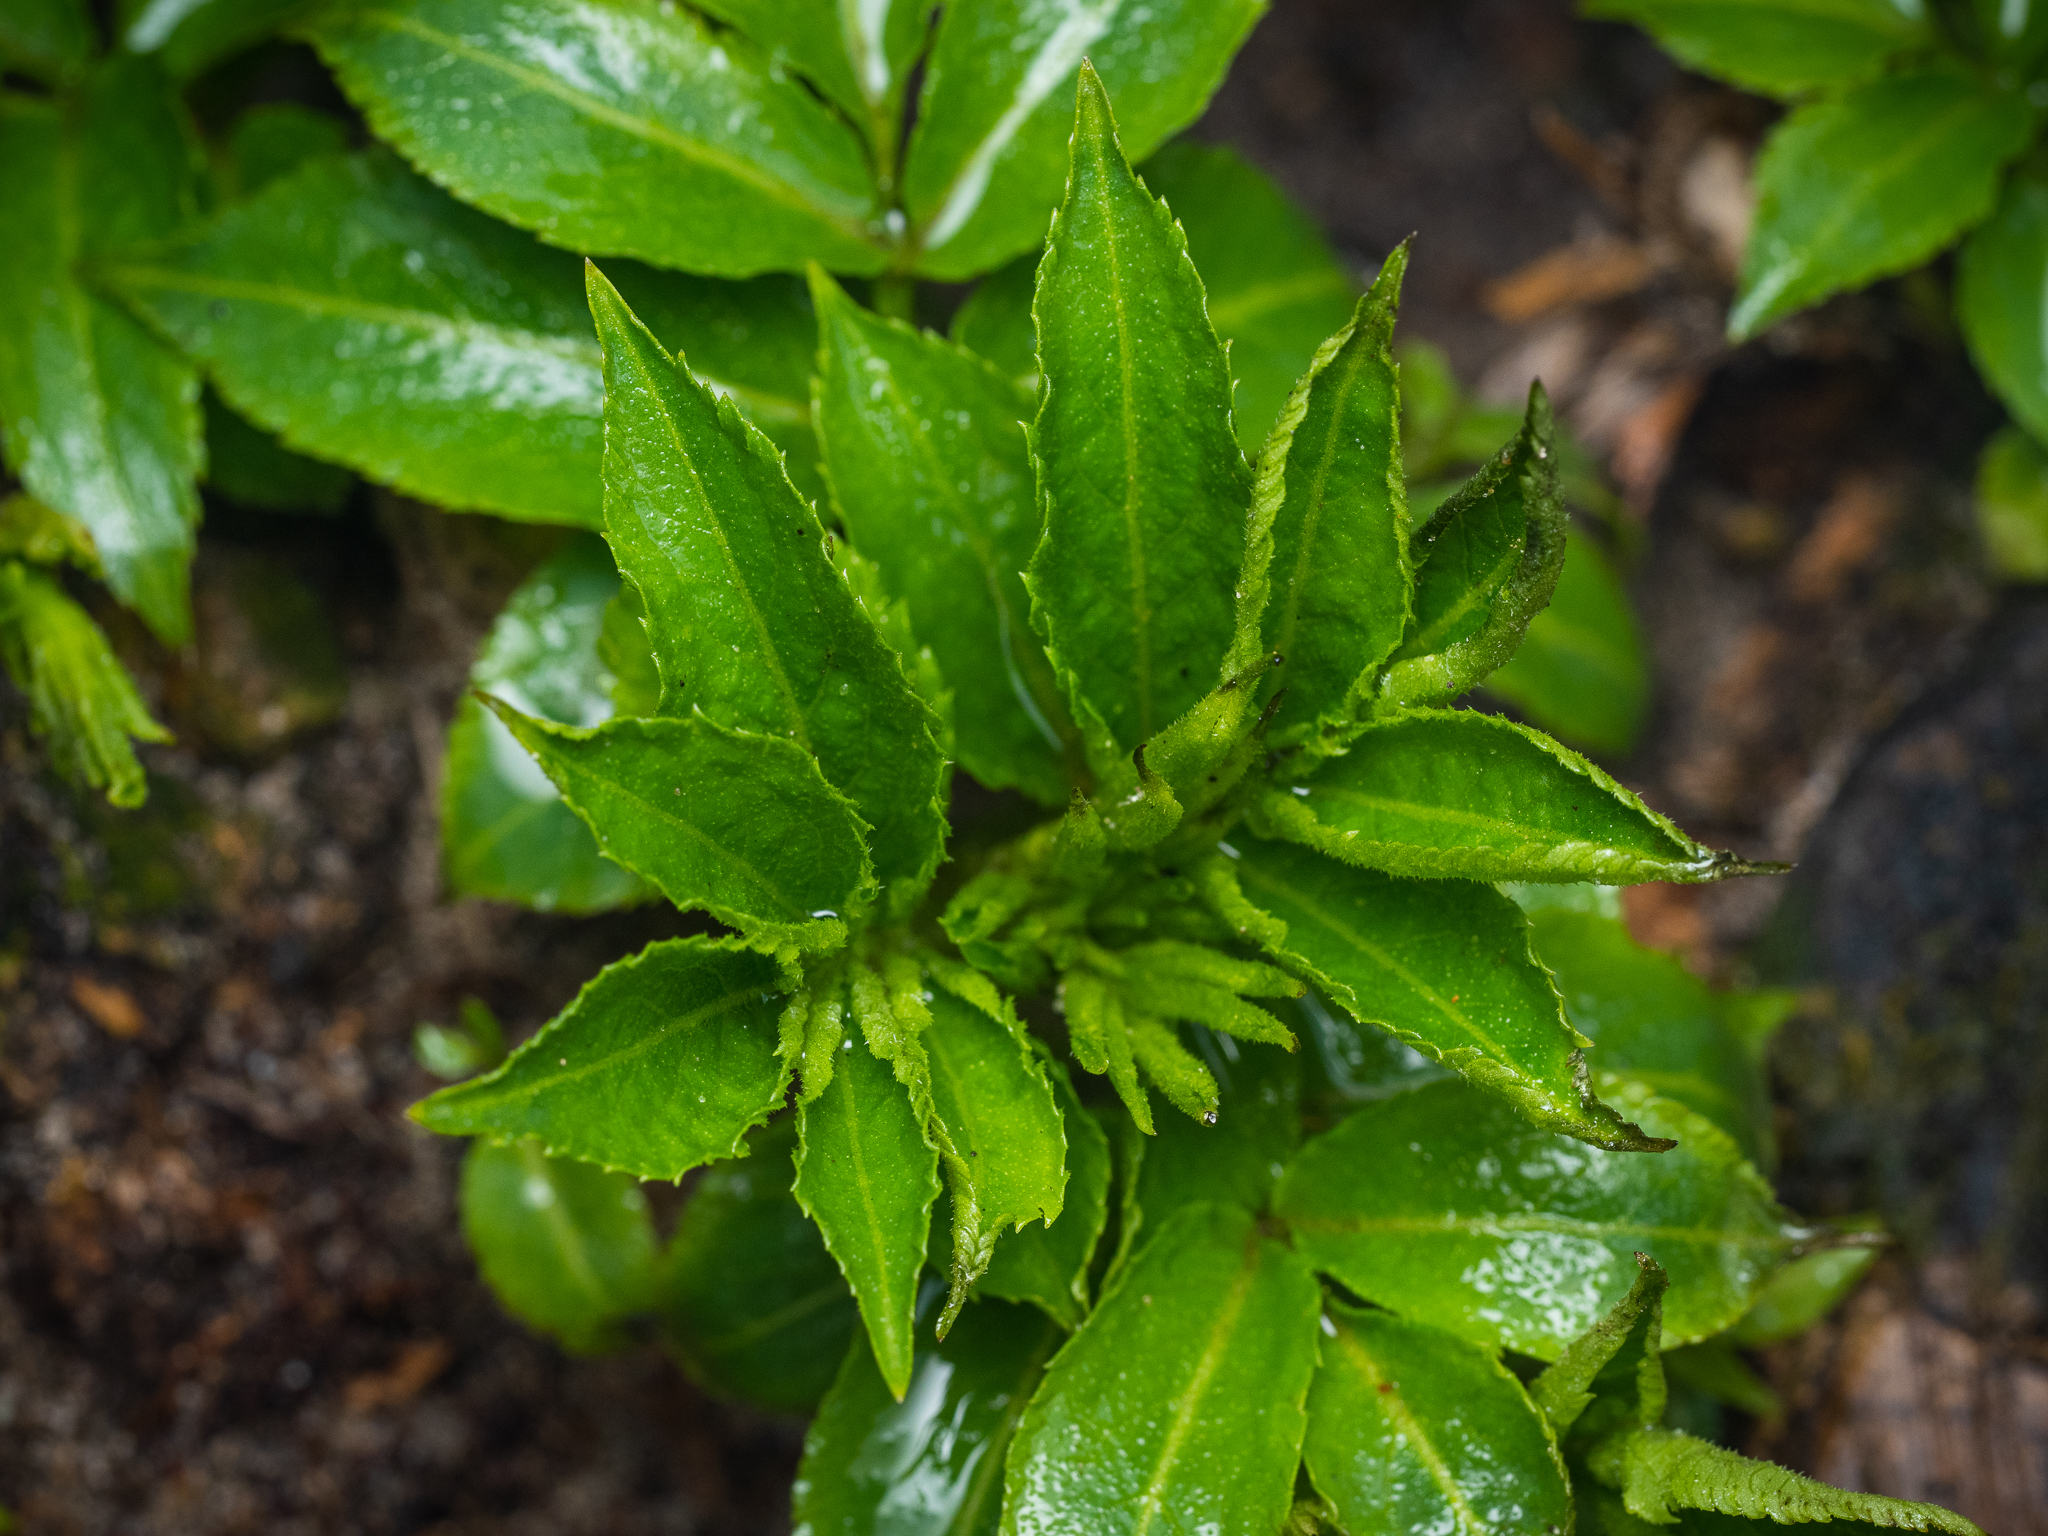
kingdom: Plantae
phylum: Tracheophyta
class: Magnoliopsida
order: Dipsacales
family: Viburnaceae
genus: Sambucus
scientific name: Sambucus nigra
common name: Elder
